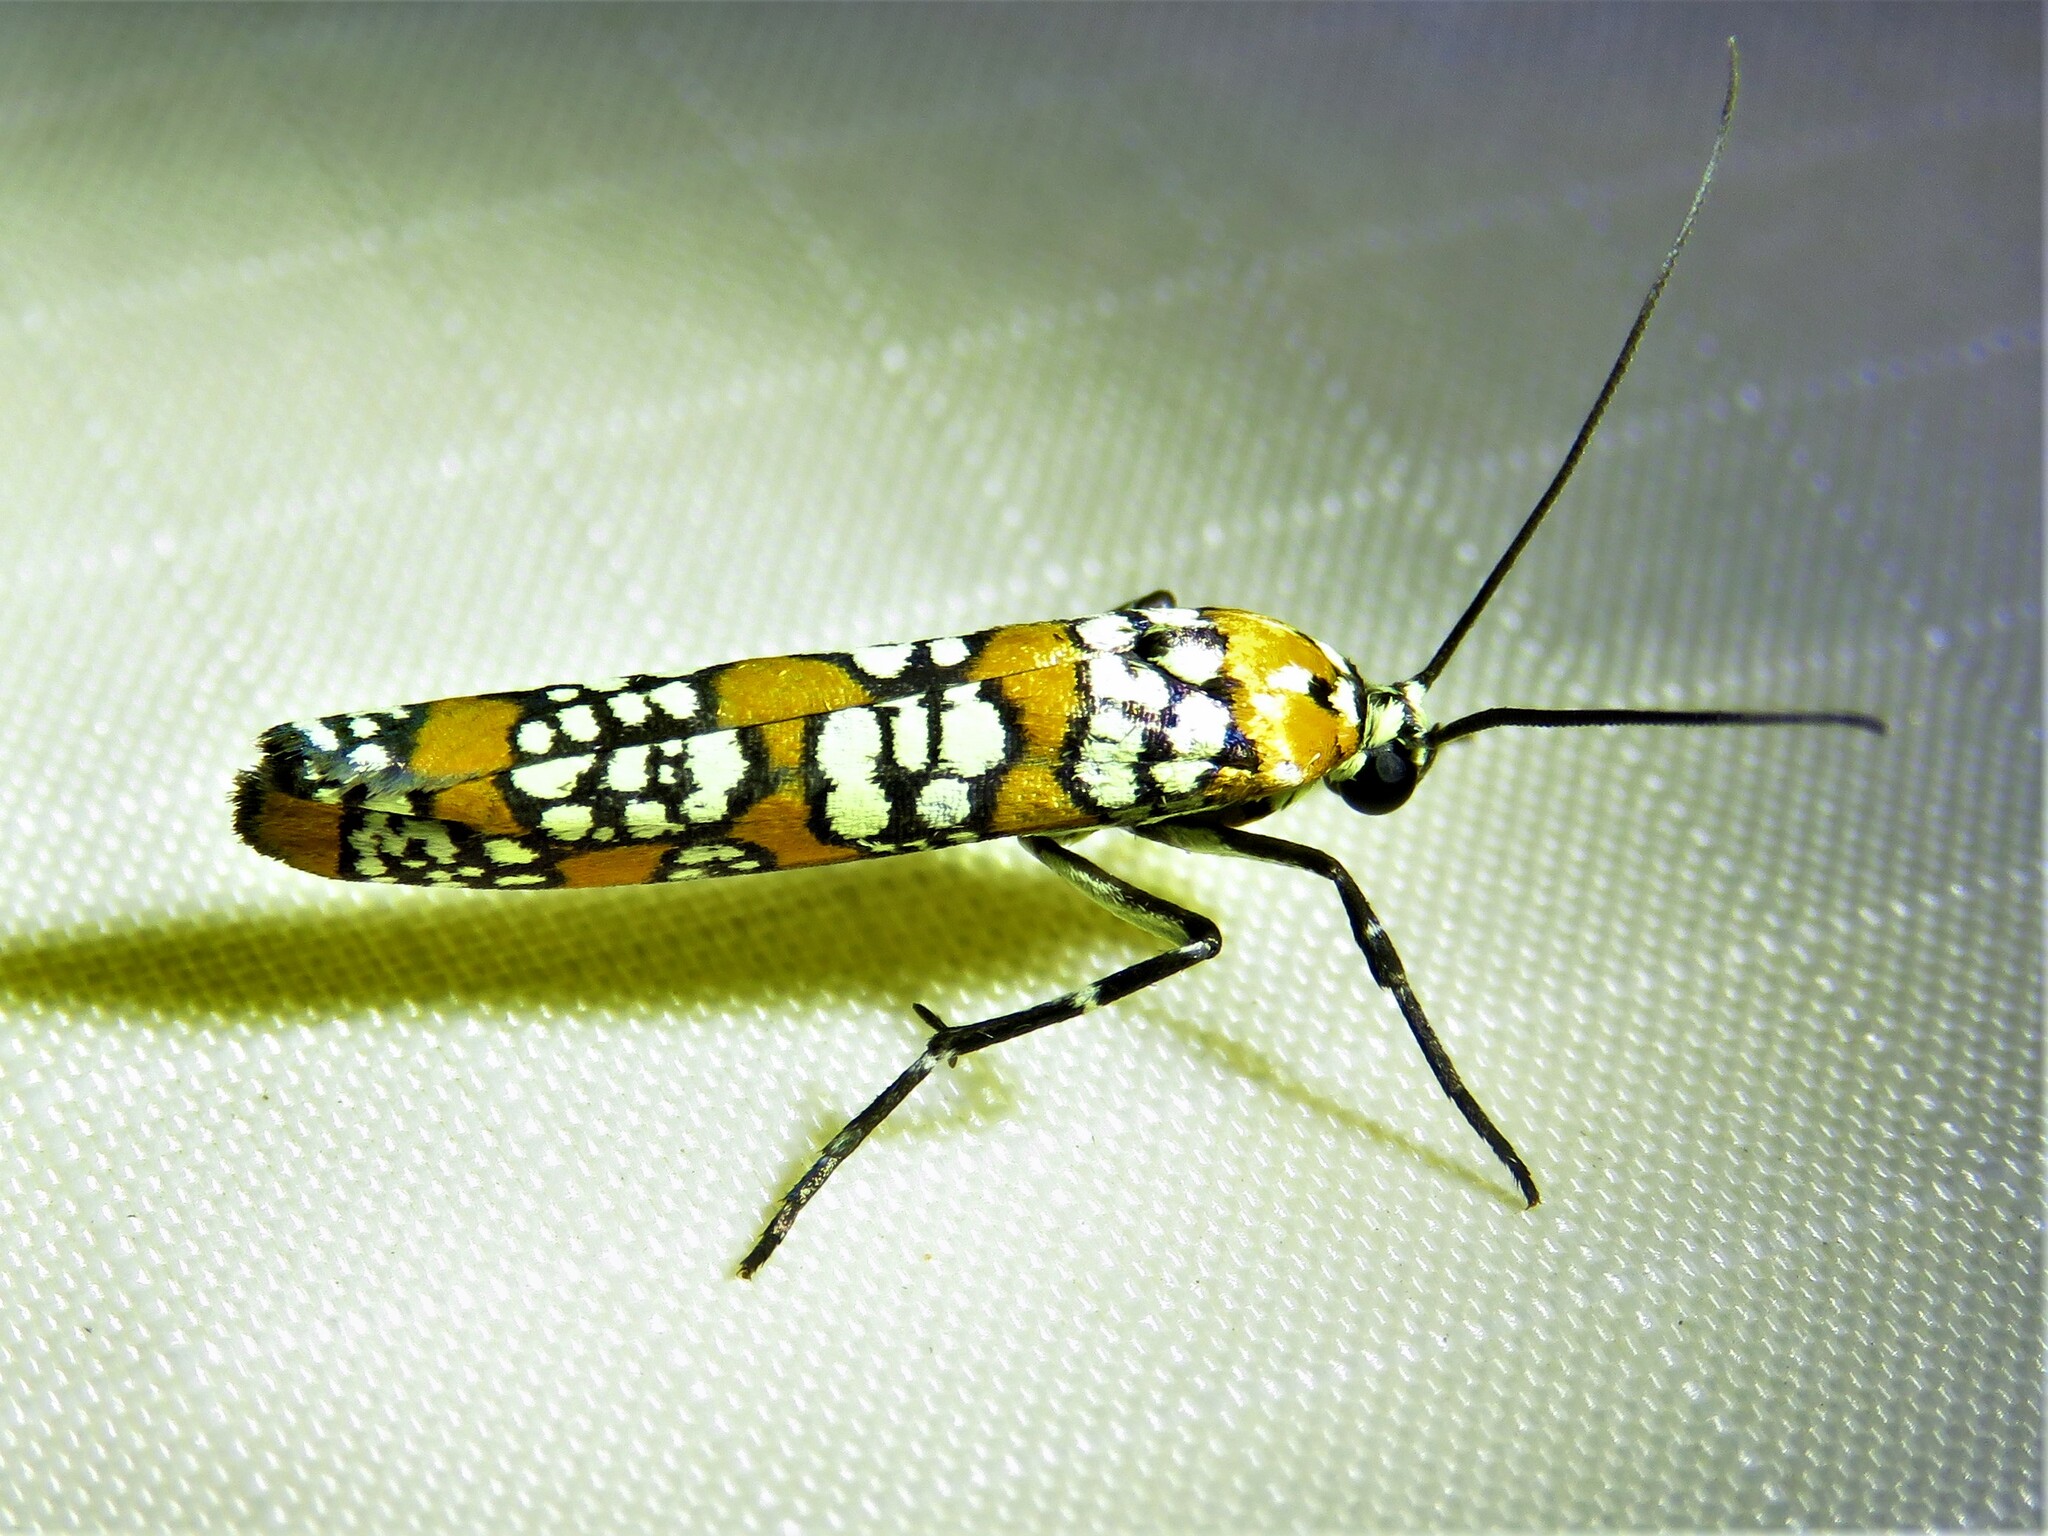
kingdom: Animalia
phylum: Arthropoda
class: Insecta
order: Lepidoptera
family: Attevidae
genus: Atteva
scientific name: Atteva punctella
